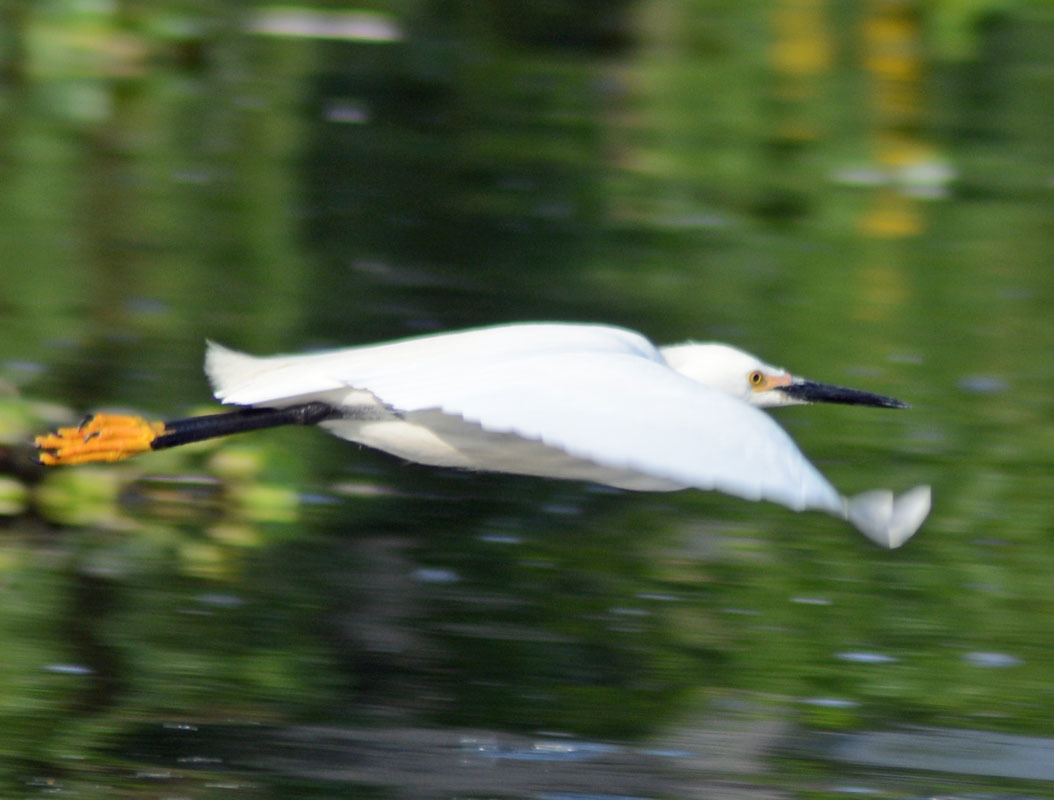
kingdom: Animalia
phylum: Chordata
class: Aves
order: Pelecaniformes
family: Ardeidae
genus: Egretta
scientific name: Egretta thula
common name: Snowy egret
